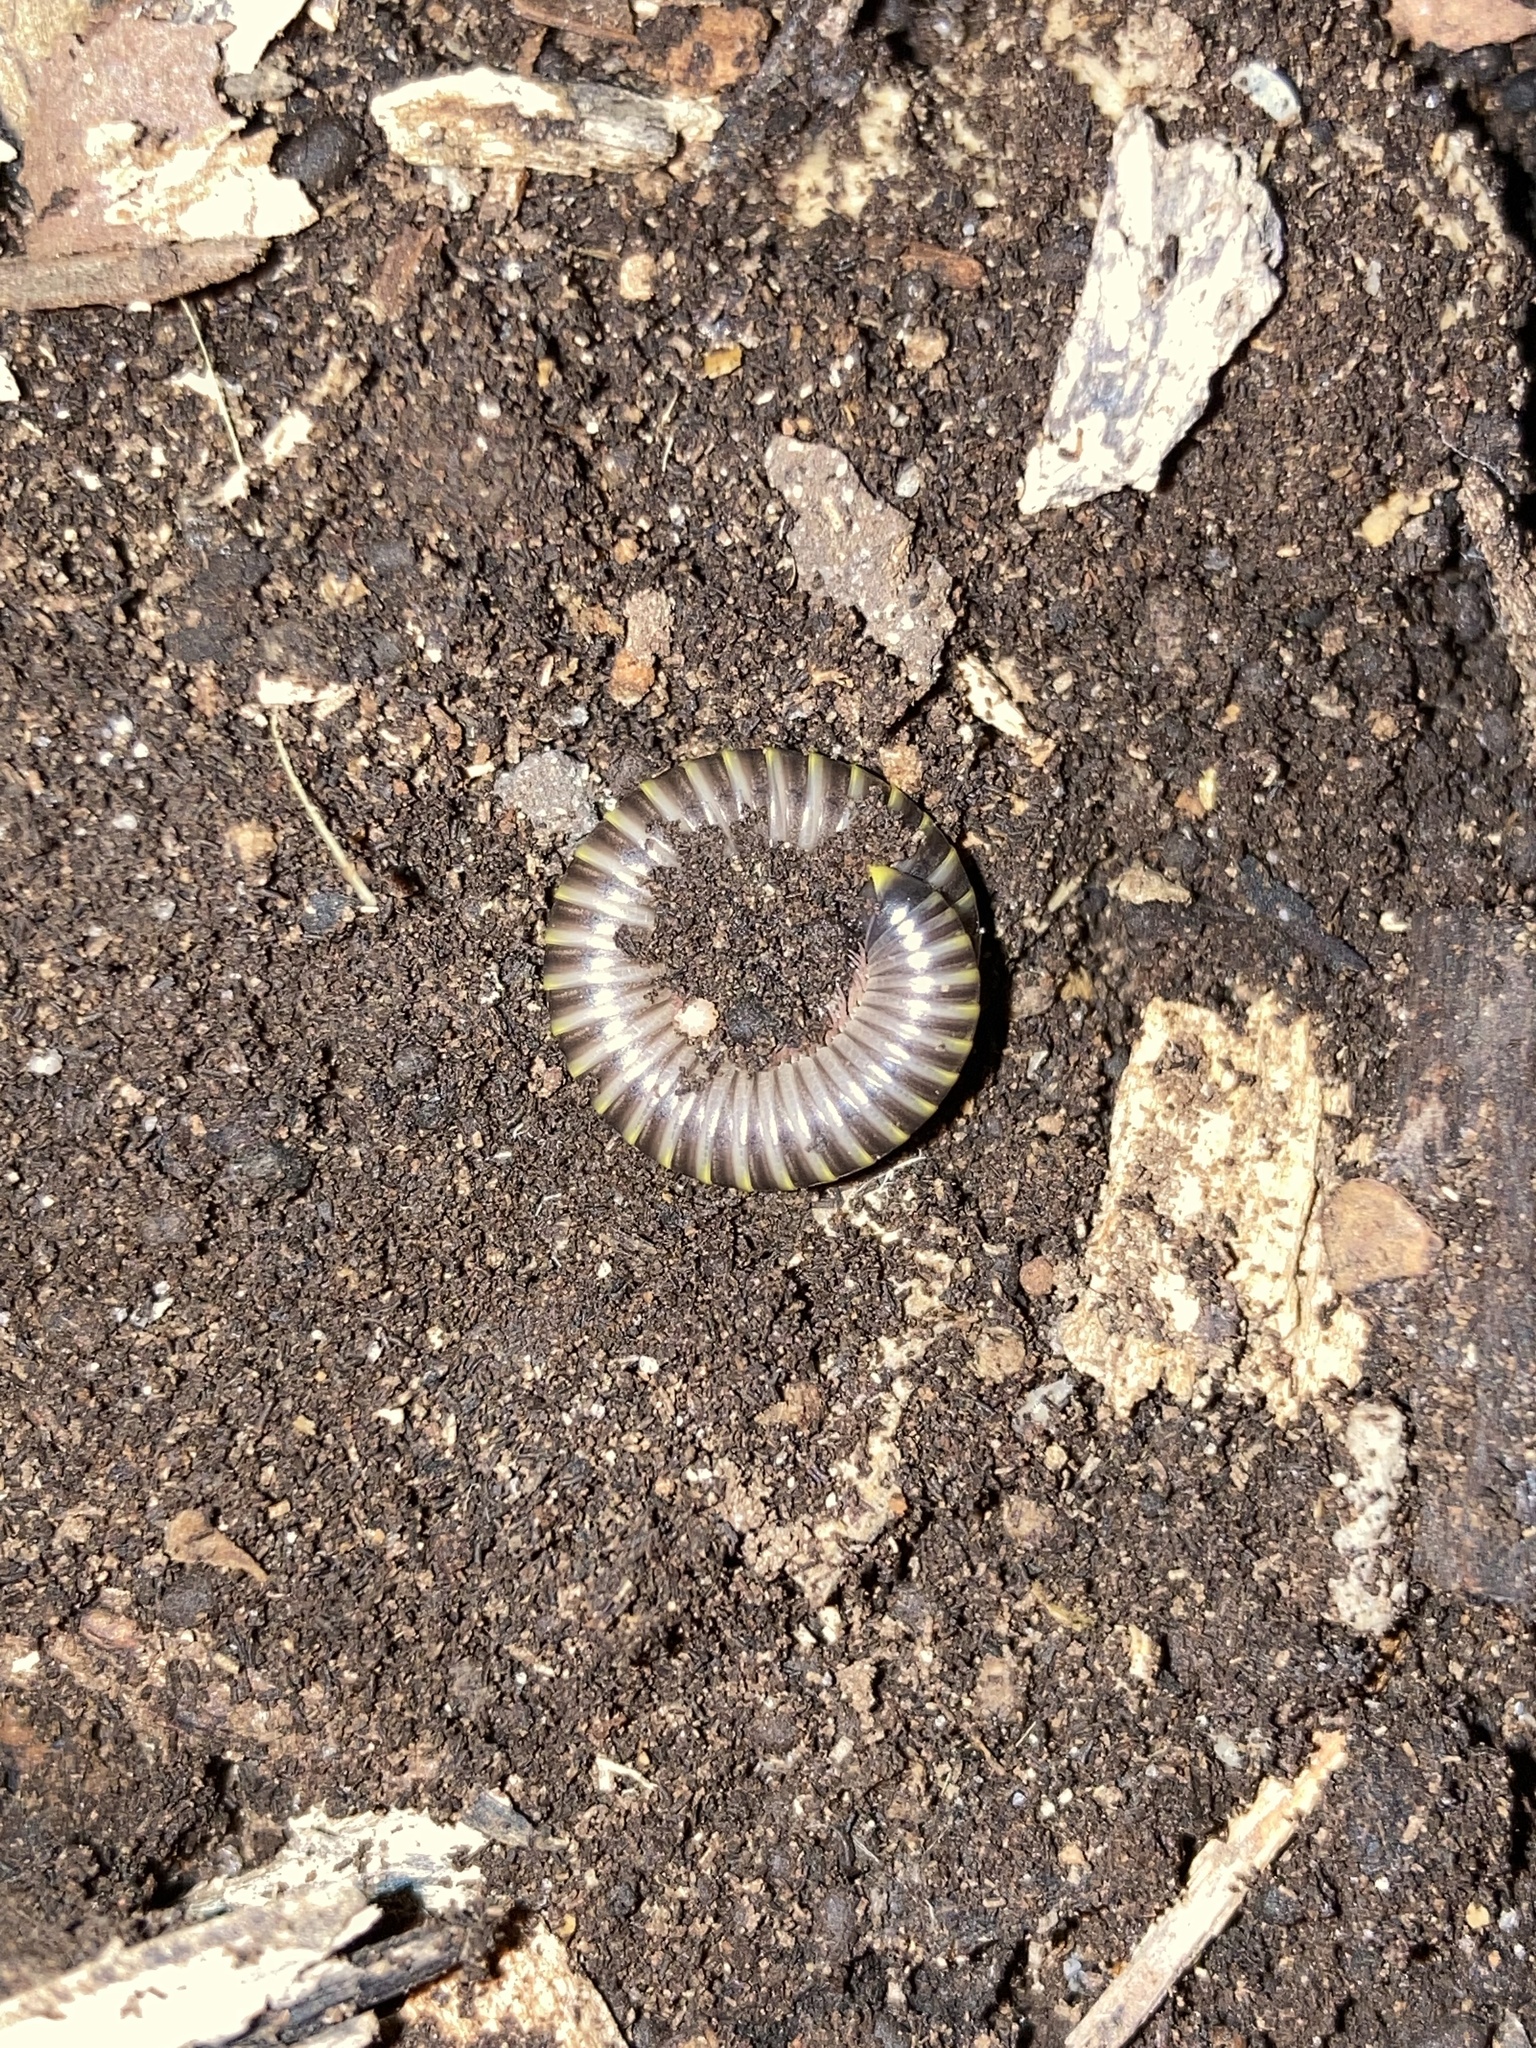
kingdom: Animalia
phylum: Arthropoda
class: Diplopoda
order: Spirobolida
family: Rhinocricidae
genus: Anadenobolus
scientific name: Anadenobolus monilicornis
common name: Caribbean millipede
